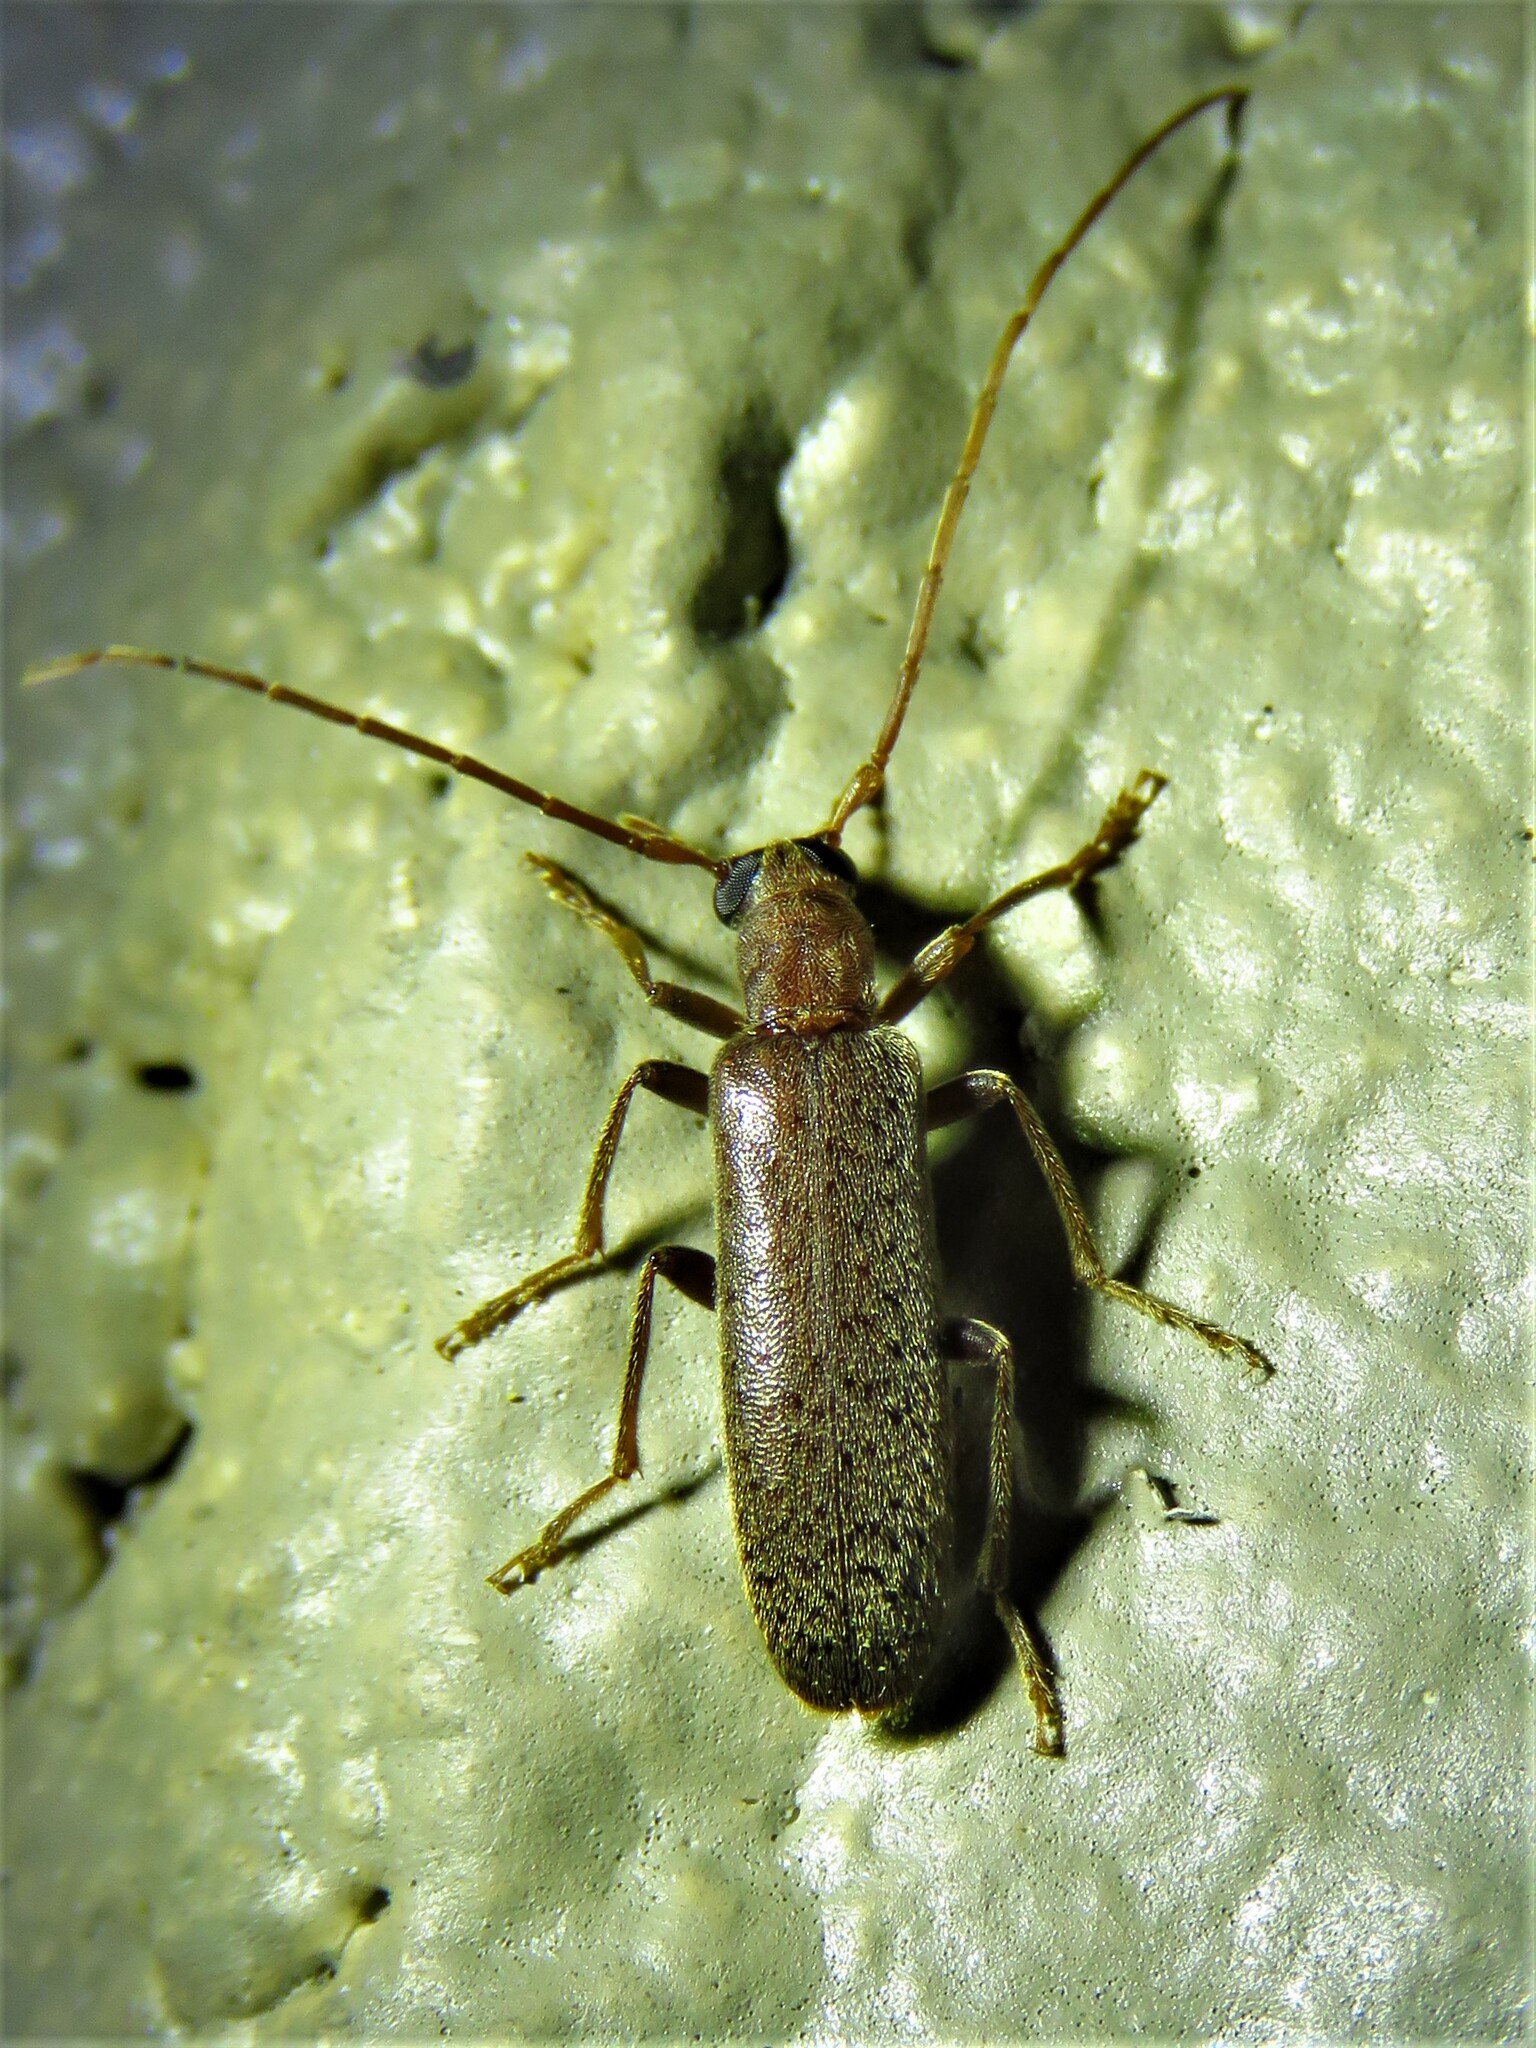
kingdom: Animalia
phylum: Arthropoda
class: Insecta
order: Coleoptera
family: Oedemeridae
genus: Sparedrus
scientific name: Sparedrus aspersus
